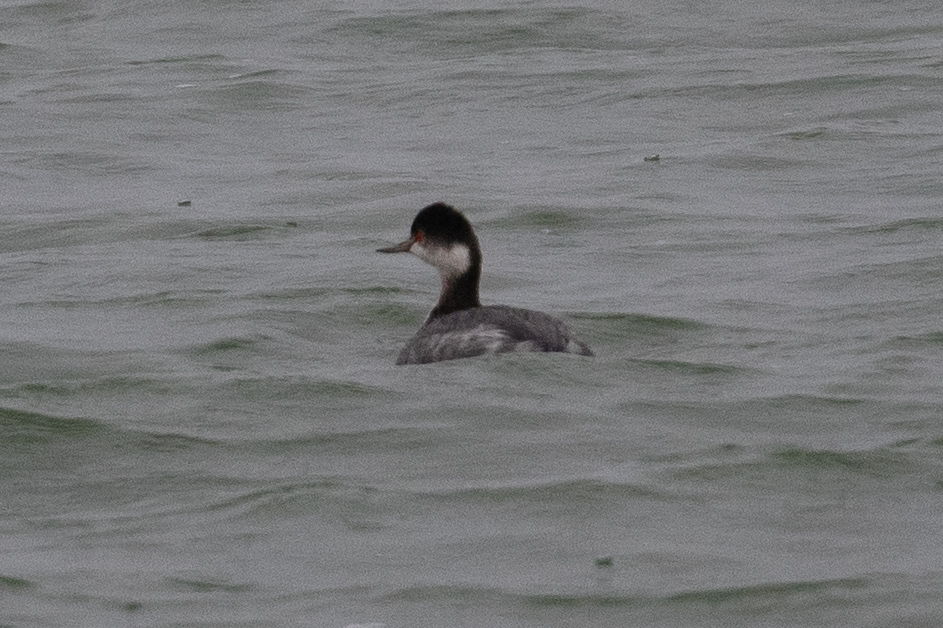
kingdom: Animalia
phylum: Chordata
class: Aves
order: Podicipediformes
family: Podicipedidae
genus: Podiceps
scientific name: Podiceps nigricollis
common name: Black-necked grebe
